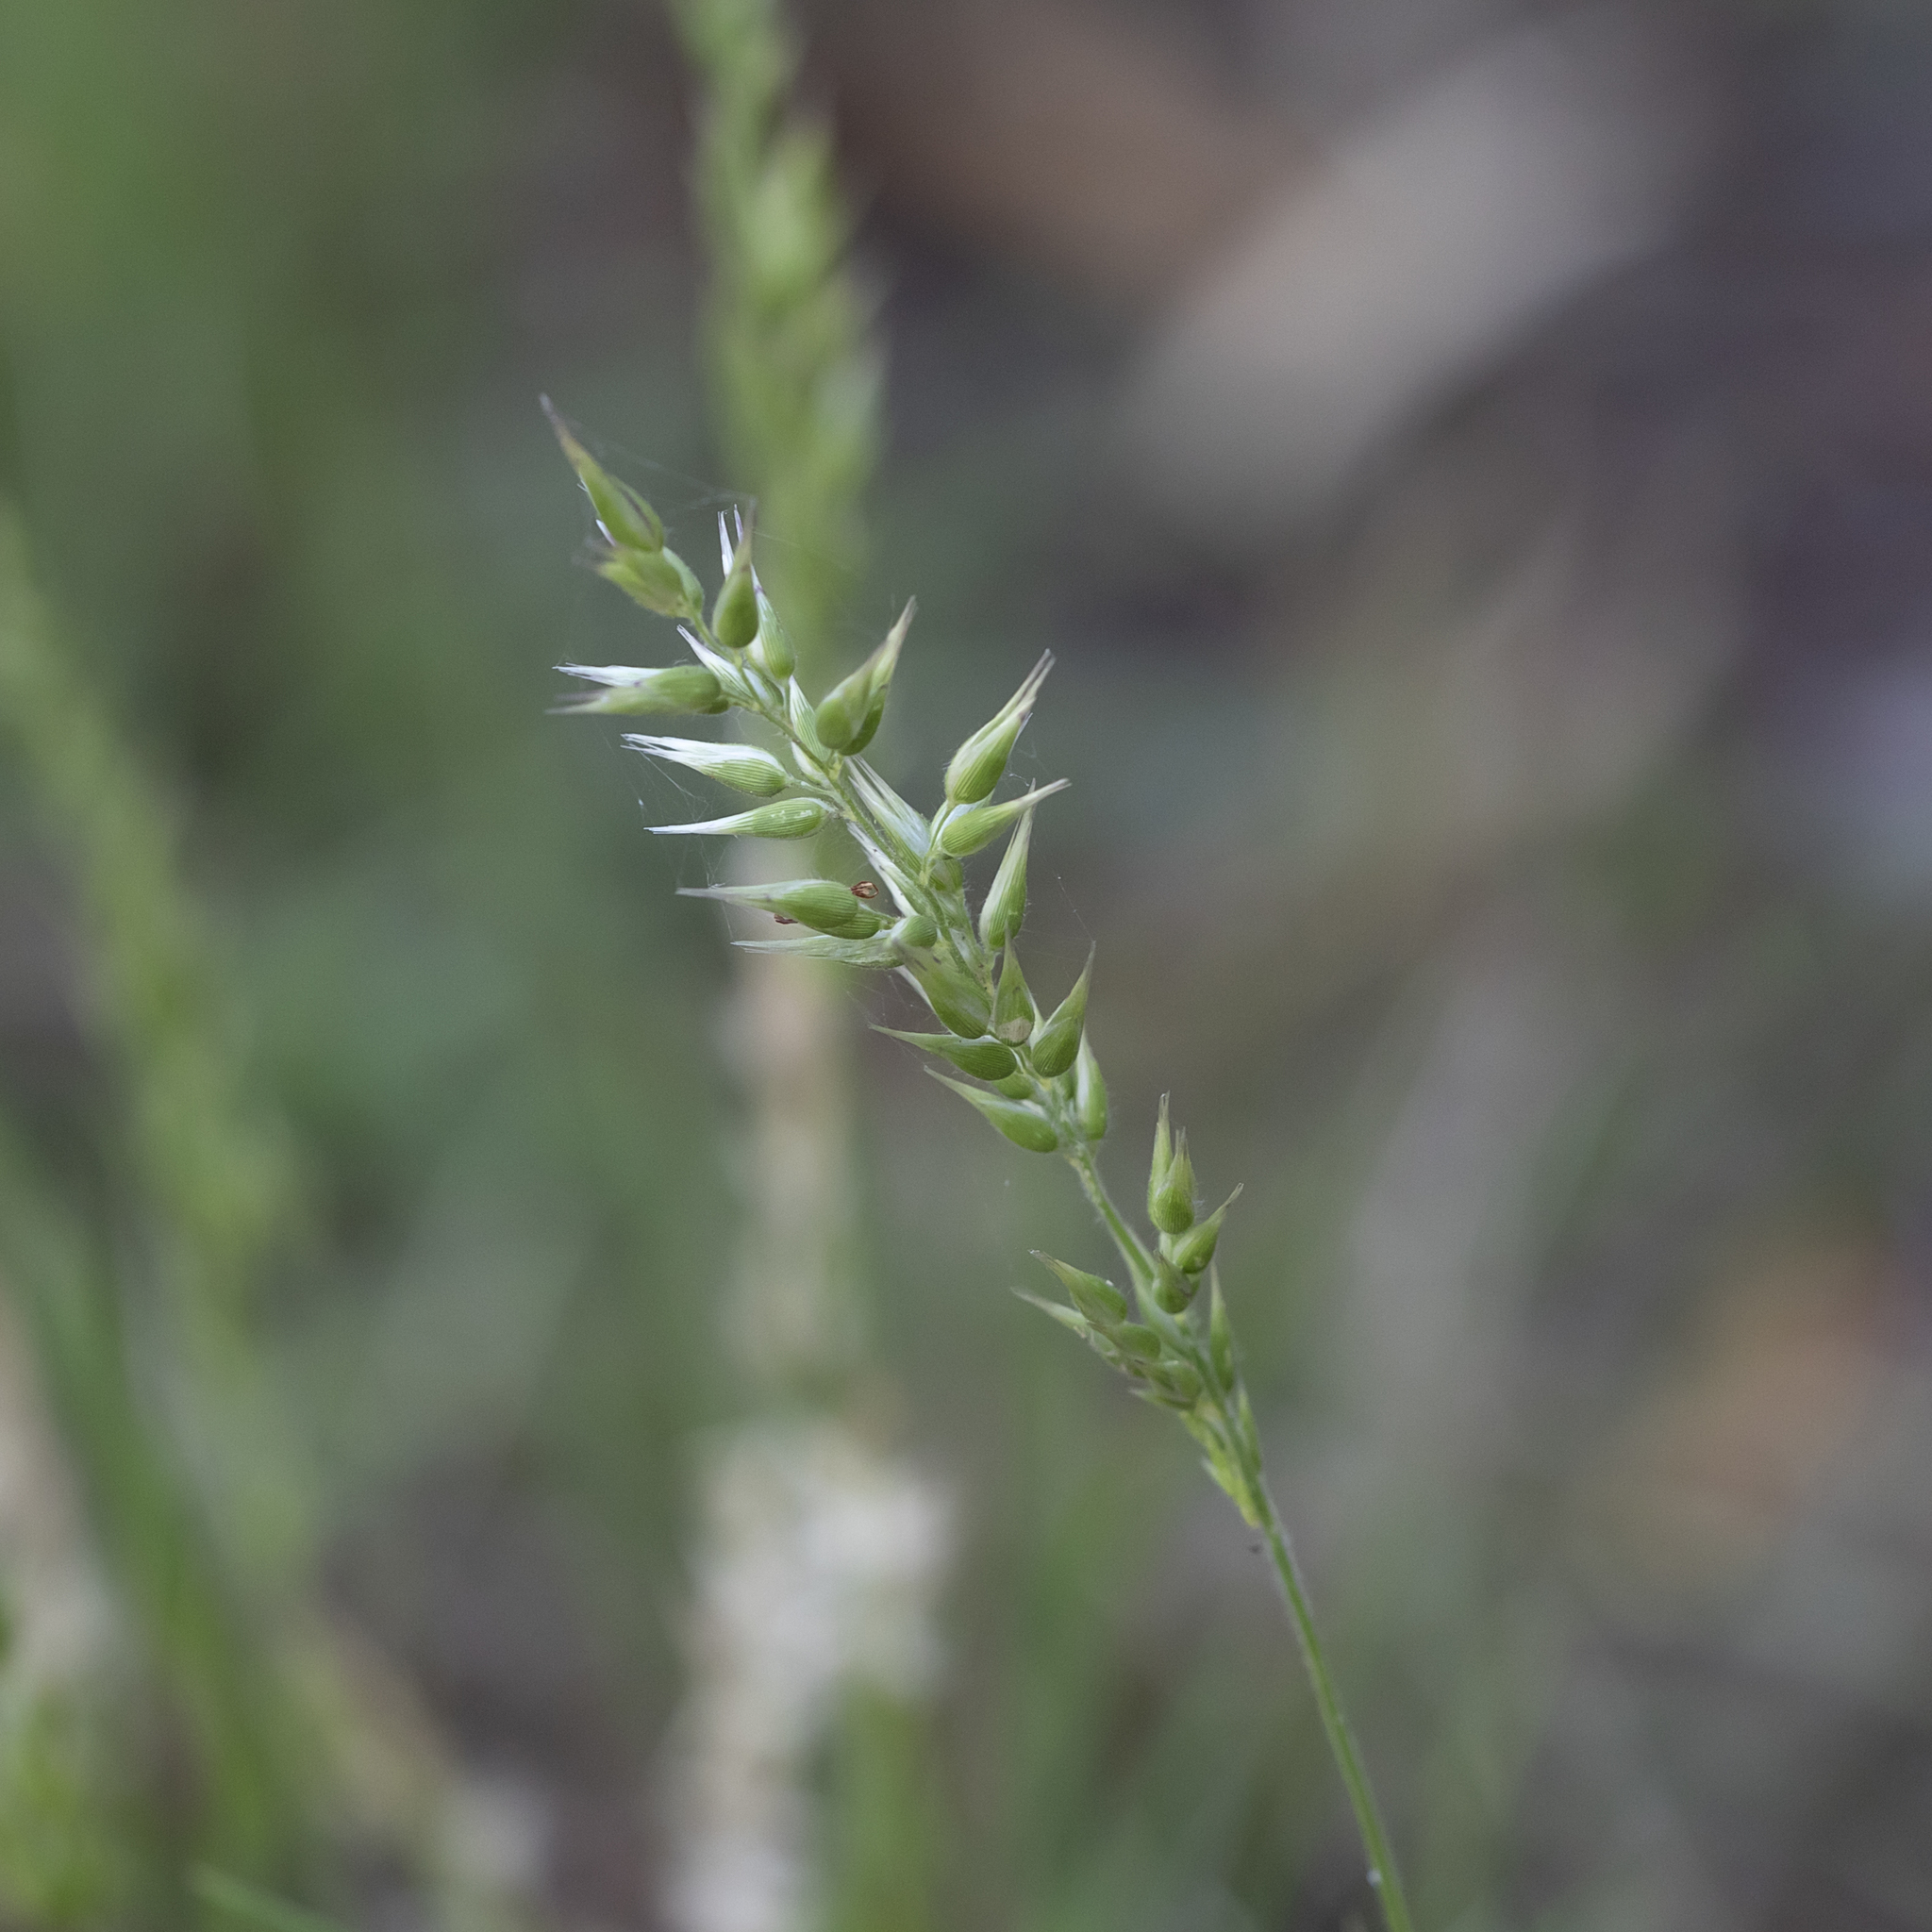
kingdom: Plantae
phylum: Tracheophyta
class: Liliopsida
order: Poales
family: Poaceae
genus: Enneapogon
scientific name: Enneapogon avenaceus
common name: Hairy oat grass
